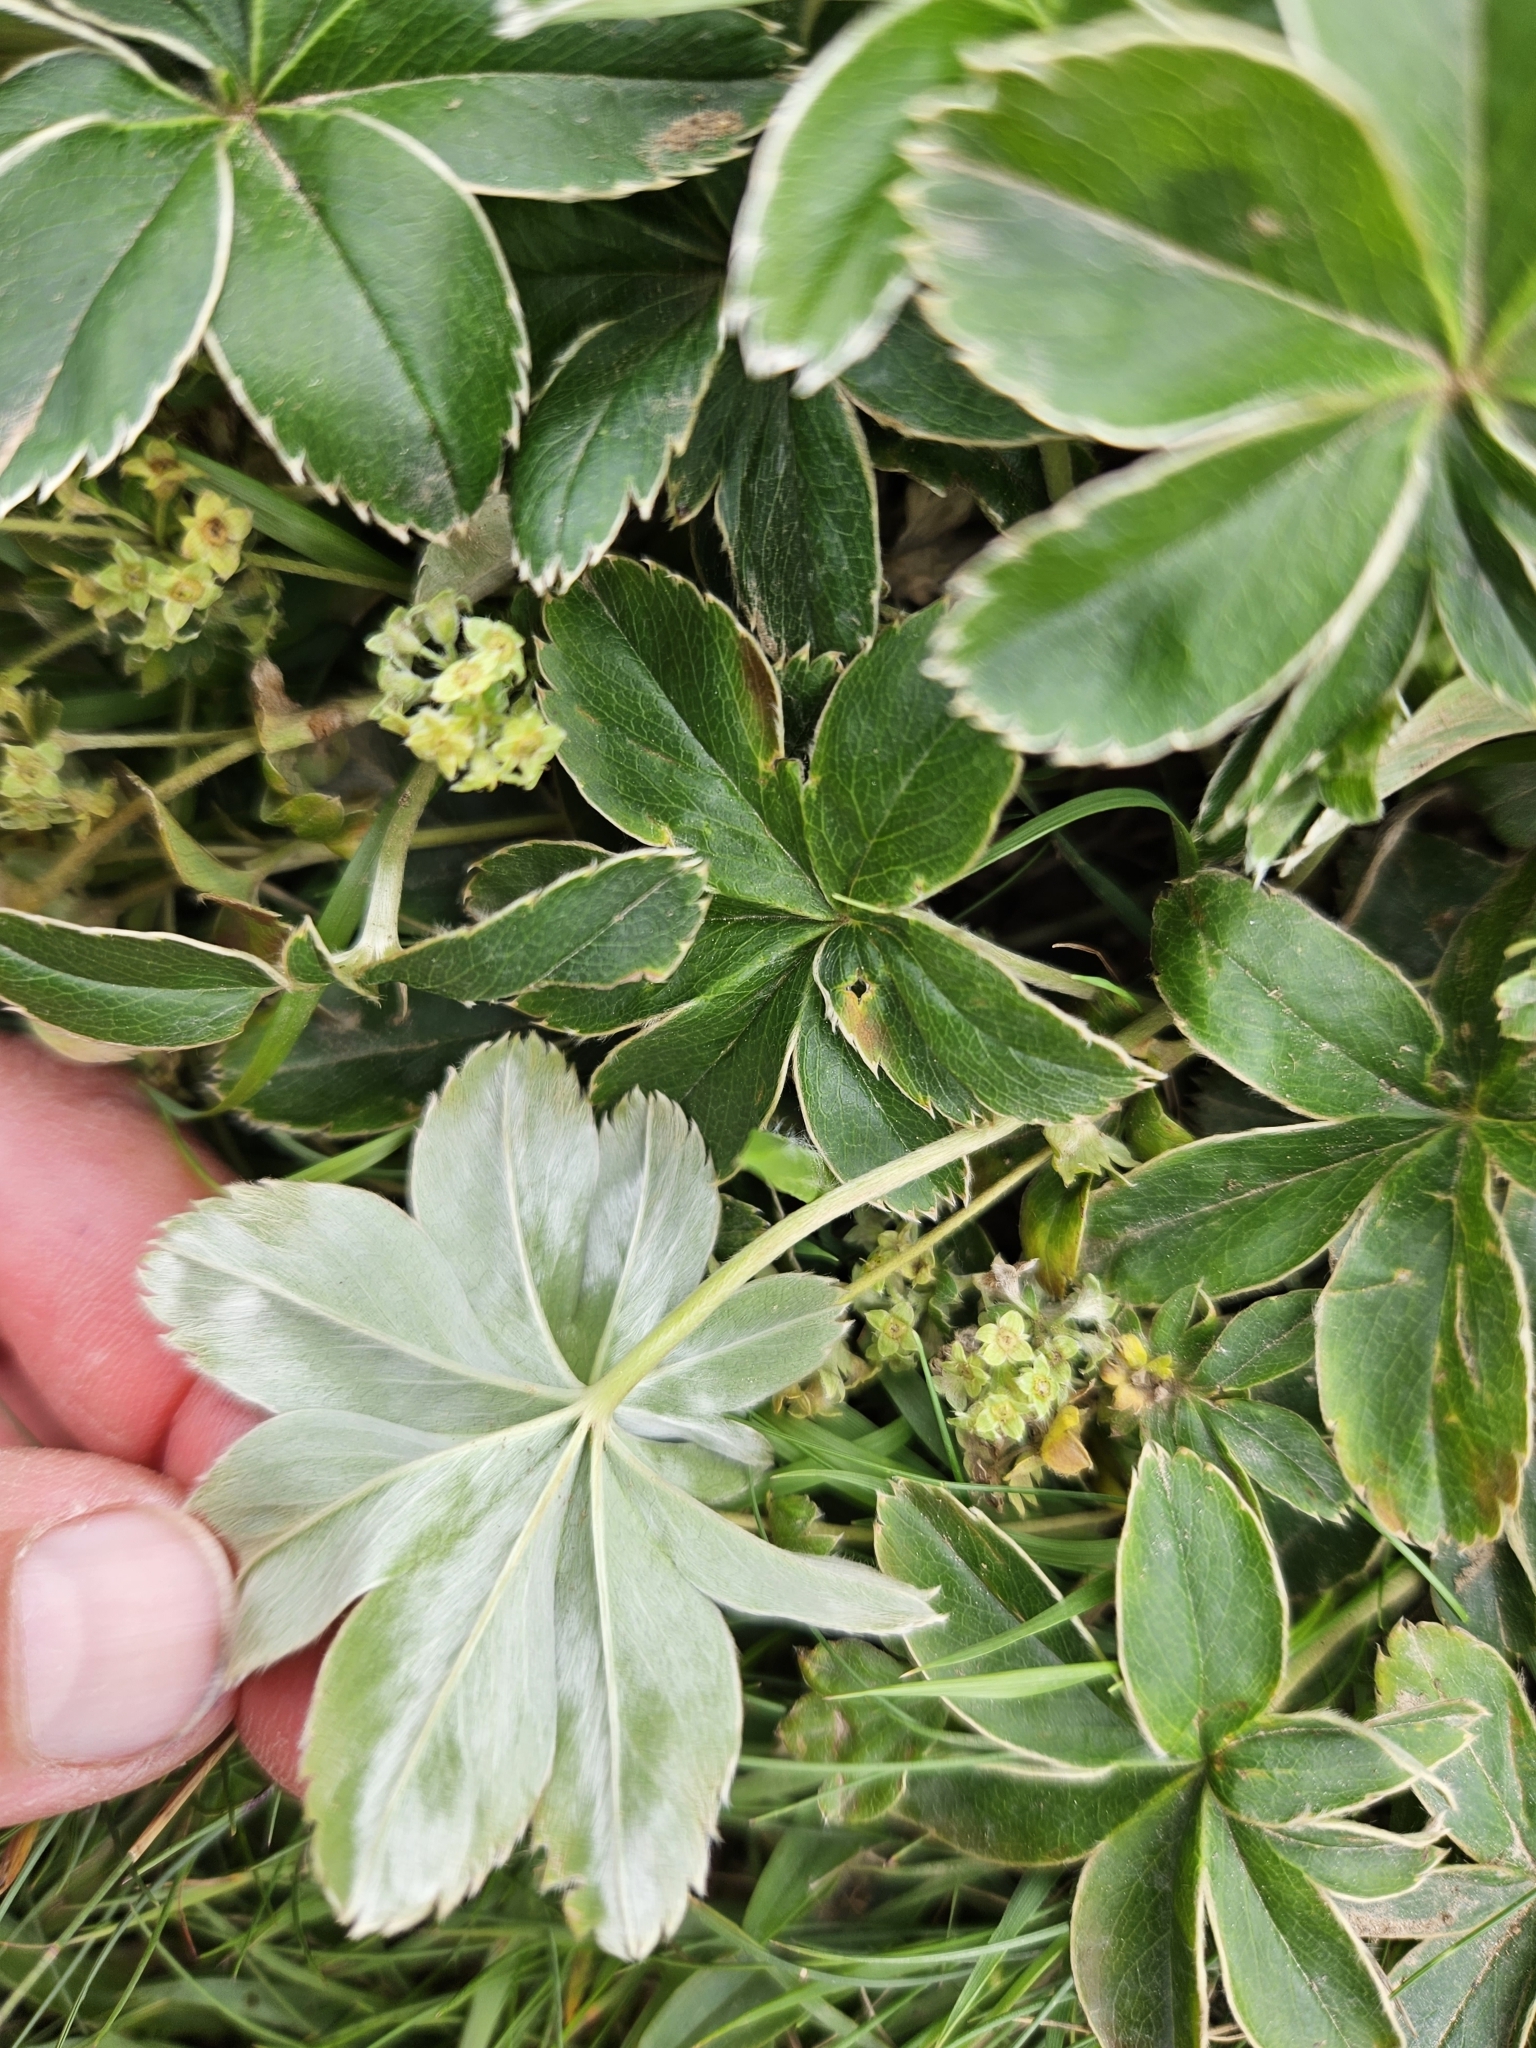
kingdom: Plantae
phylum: Tracheophyta
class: Magnoliopsida
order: Rosales
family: Rosaceae
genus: Alchemilla
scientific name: Alchemilla alpina
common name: Alpine lady's-mantle
